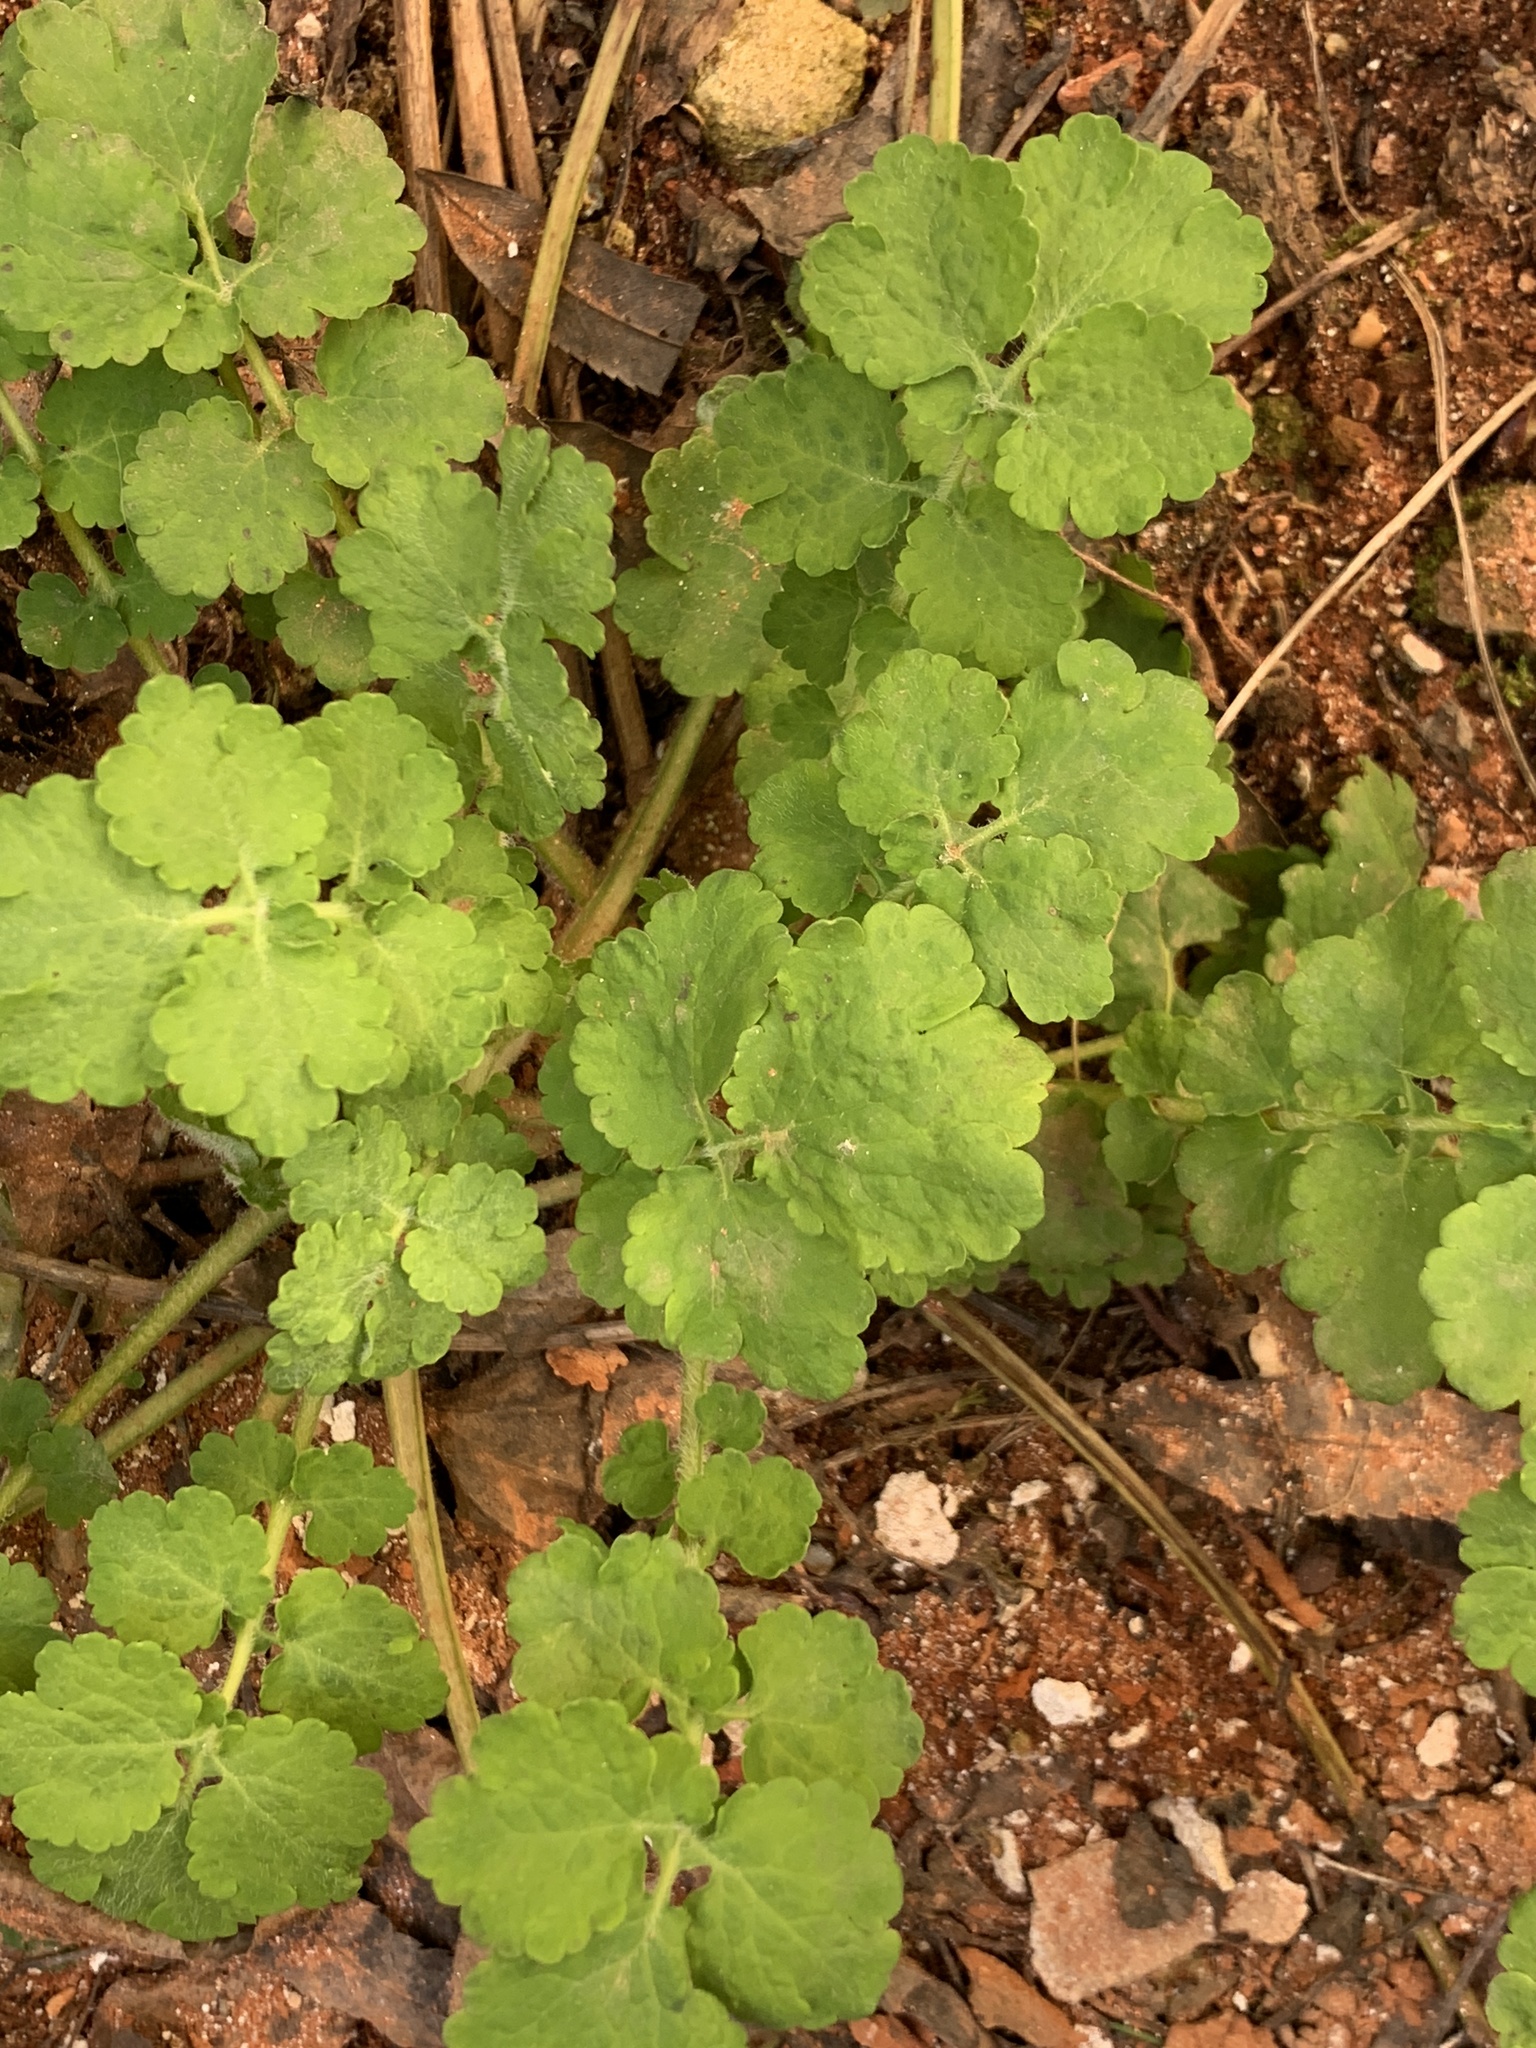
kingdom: Plantae
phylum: Tracheophyta
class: Magnoliopsida
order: Ranunculales
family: Papaveraceae
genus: Chelidonium
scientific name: Chelidonium majus
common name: Greater celandine
